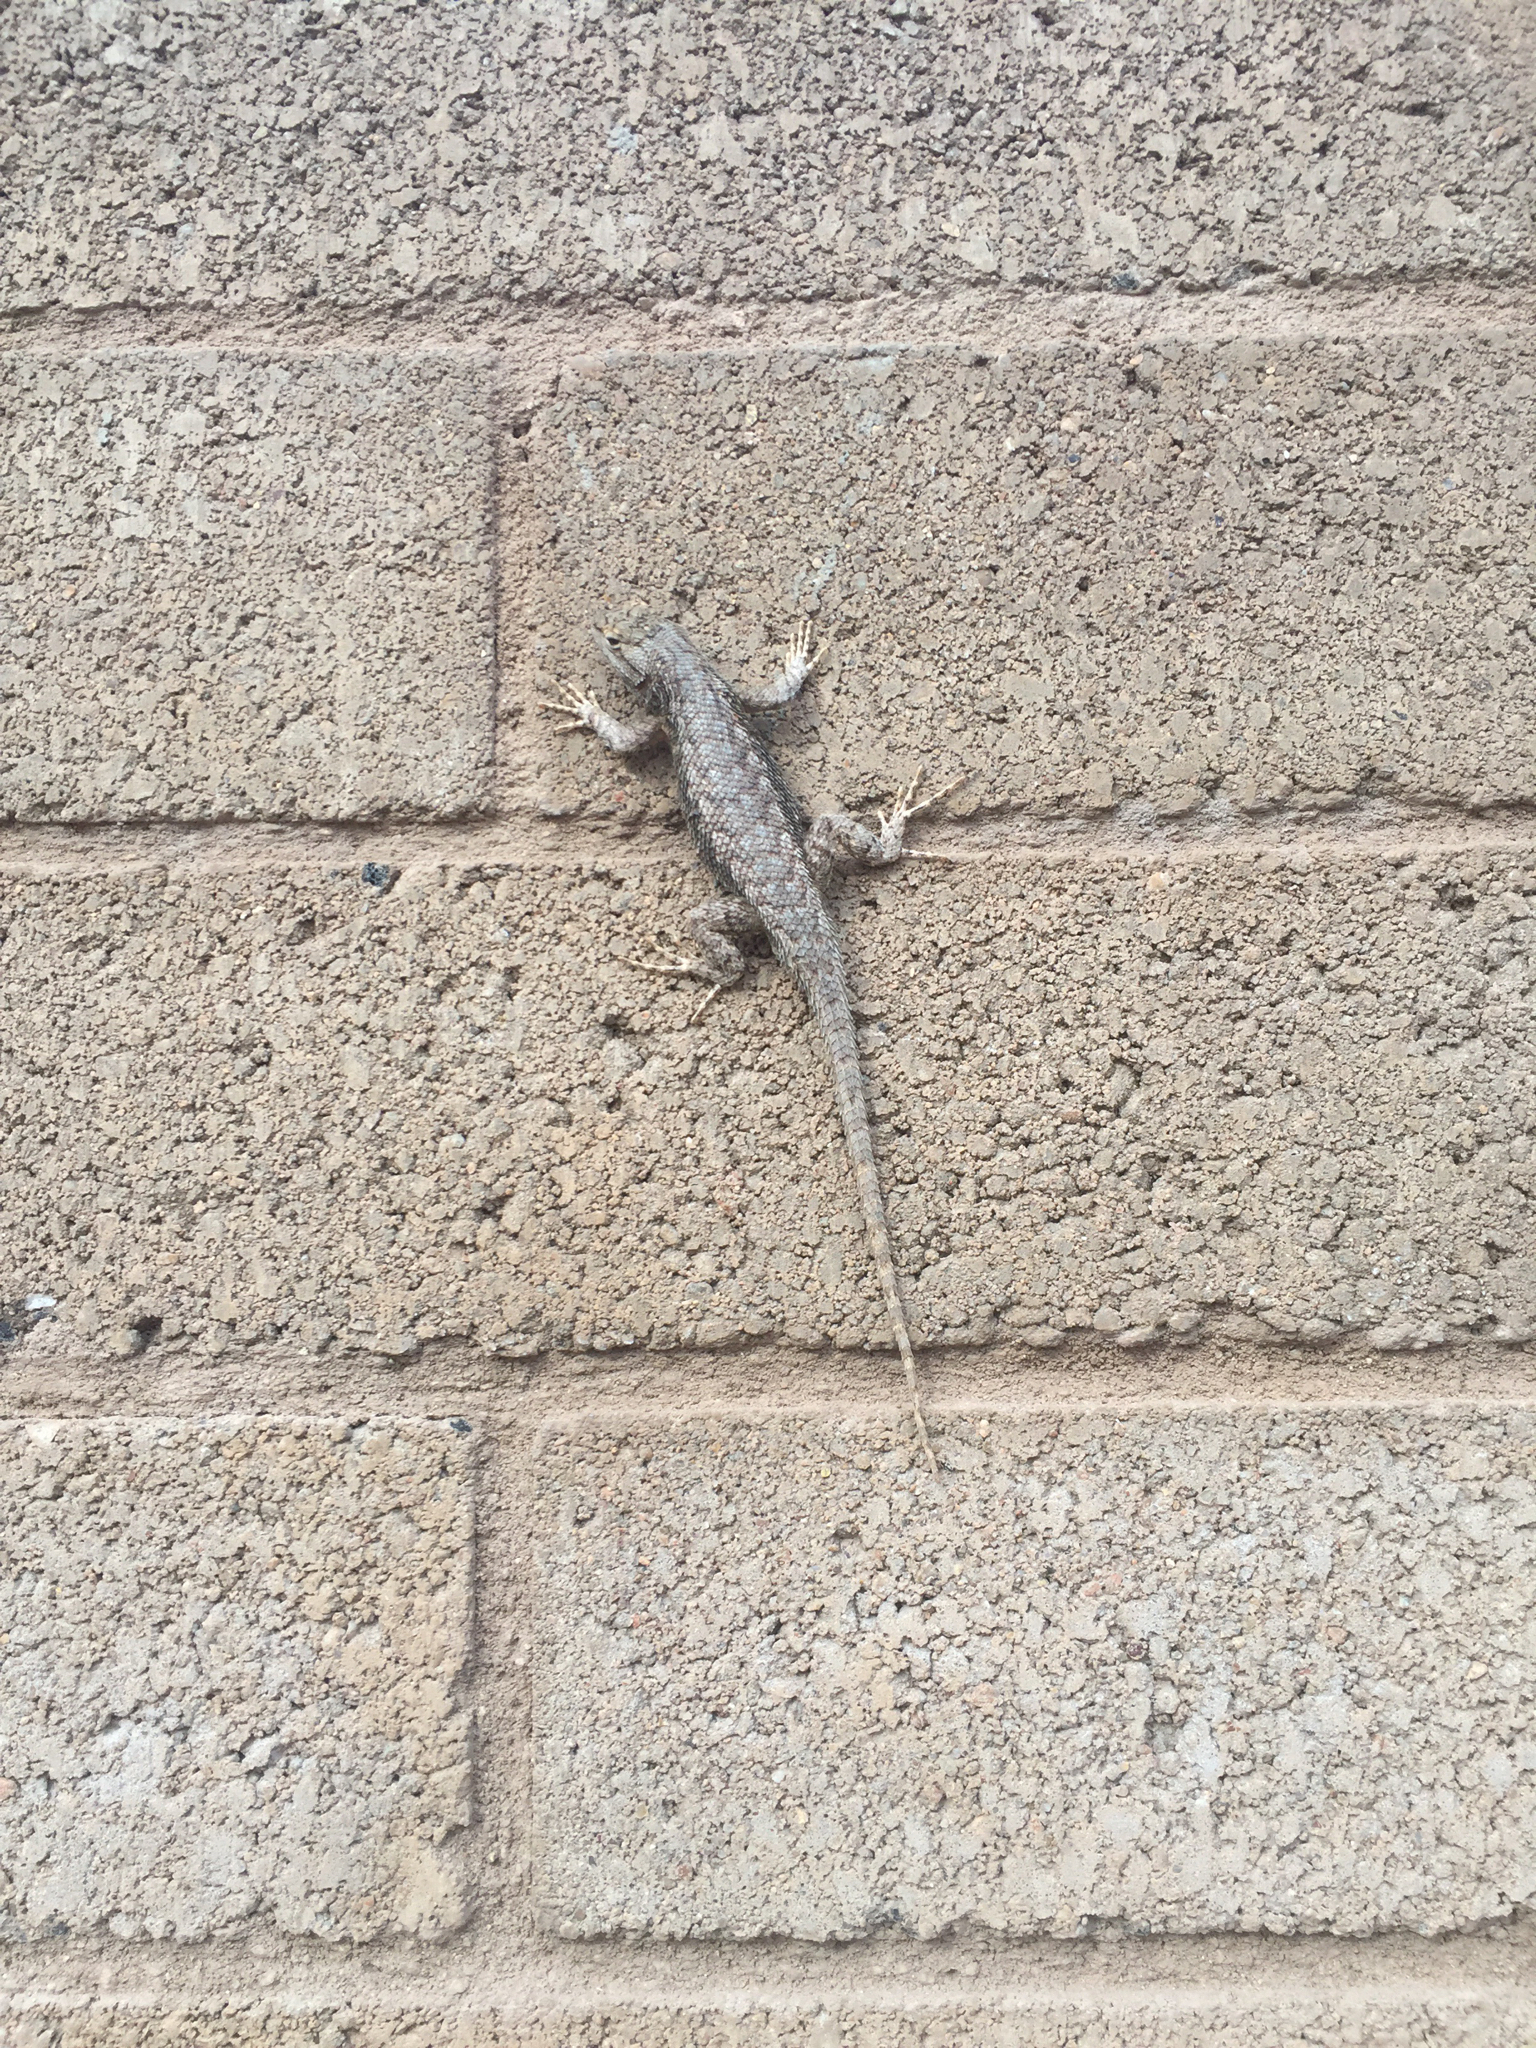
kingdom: Animalia
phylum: Chordata
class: Squamata
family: Phrynosomatidae
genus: Sceloporus
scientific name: Sceloporus tristichus
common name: Plateau fence lizard
